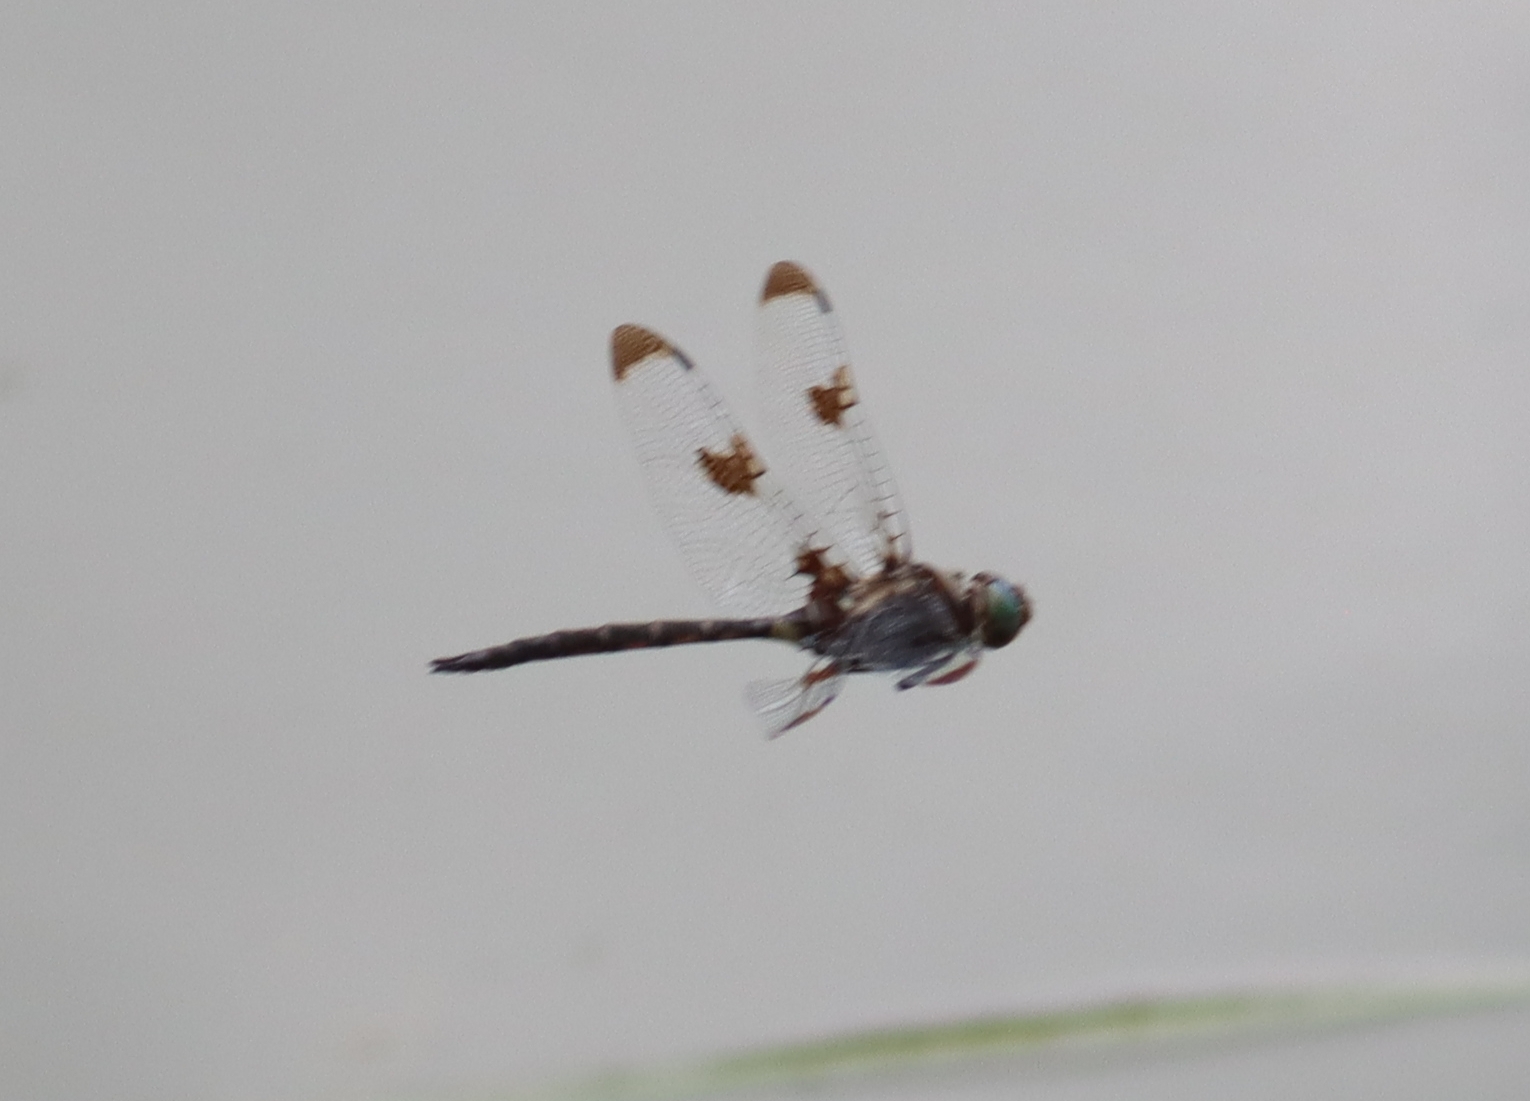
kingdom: Animalia
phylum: Arthropoda
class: Insecta
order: Odonata
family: Corduliidae
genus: Epitheca
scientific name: Epitheca princeps
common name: Prince baskettail
